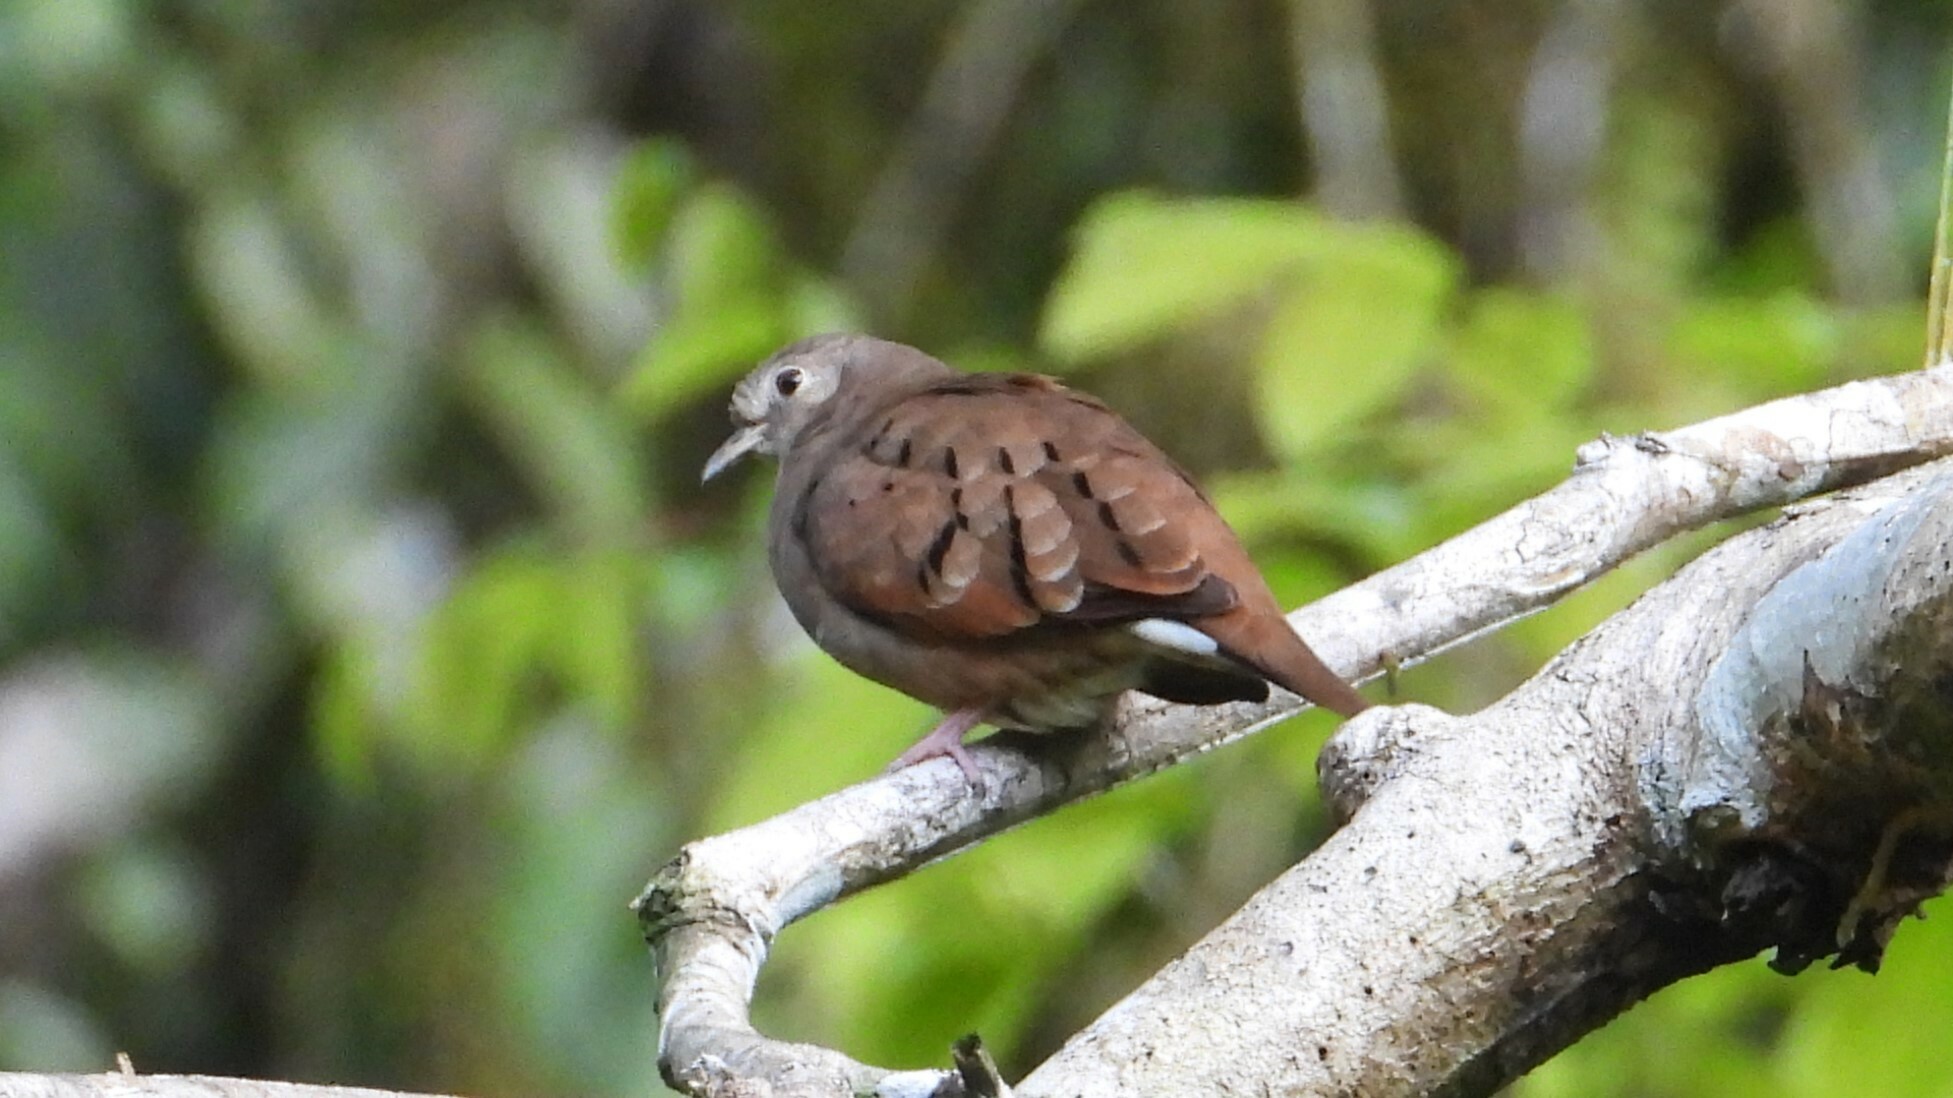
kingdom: Animalia
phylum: Chordata
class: Aves
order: Columbiformes
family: Columbidae
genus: Columbina
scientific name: Columbina talpacoti
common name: Ruddy ground dove
